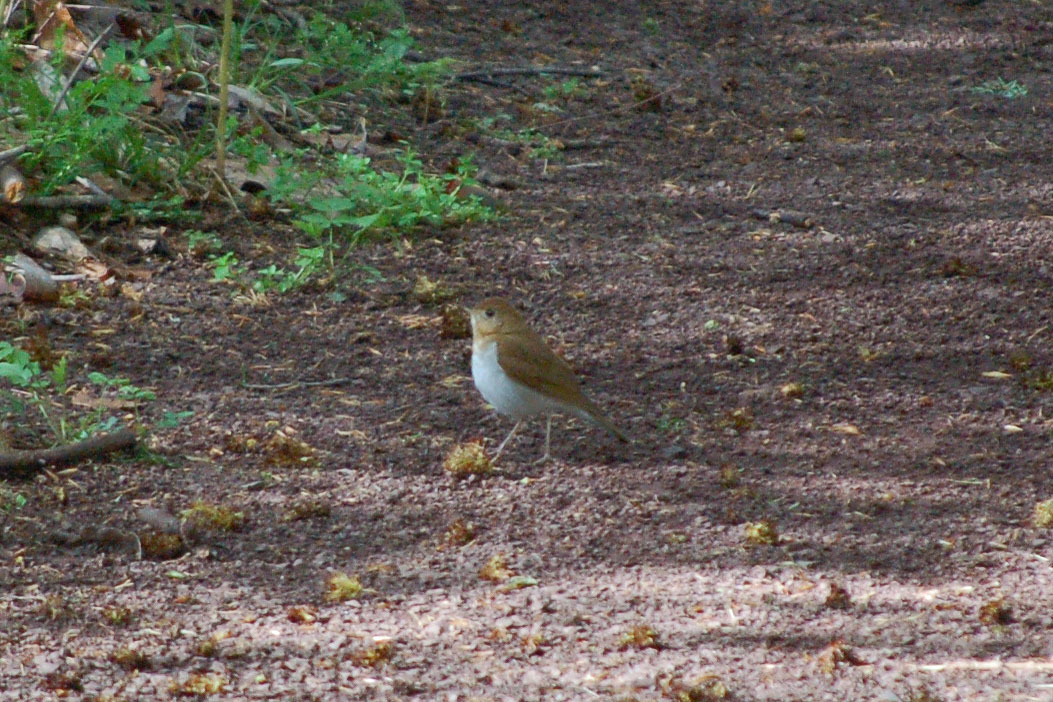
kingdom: Animalia
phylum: Chordata
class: Aves
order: Passeriformes
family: Turdidae
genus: Catharus
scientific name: Catharus fuscescens
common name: Veery
